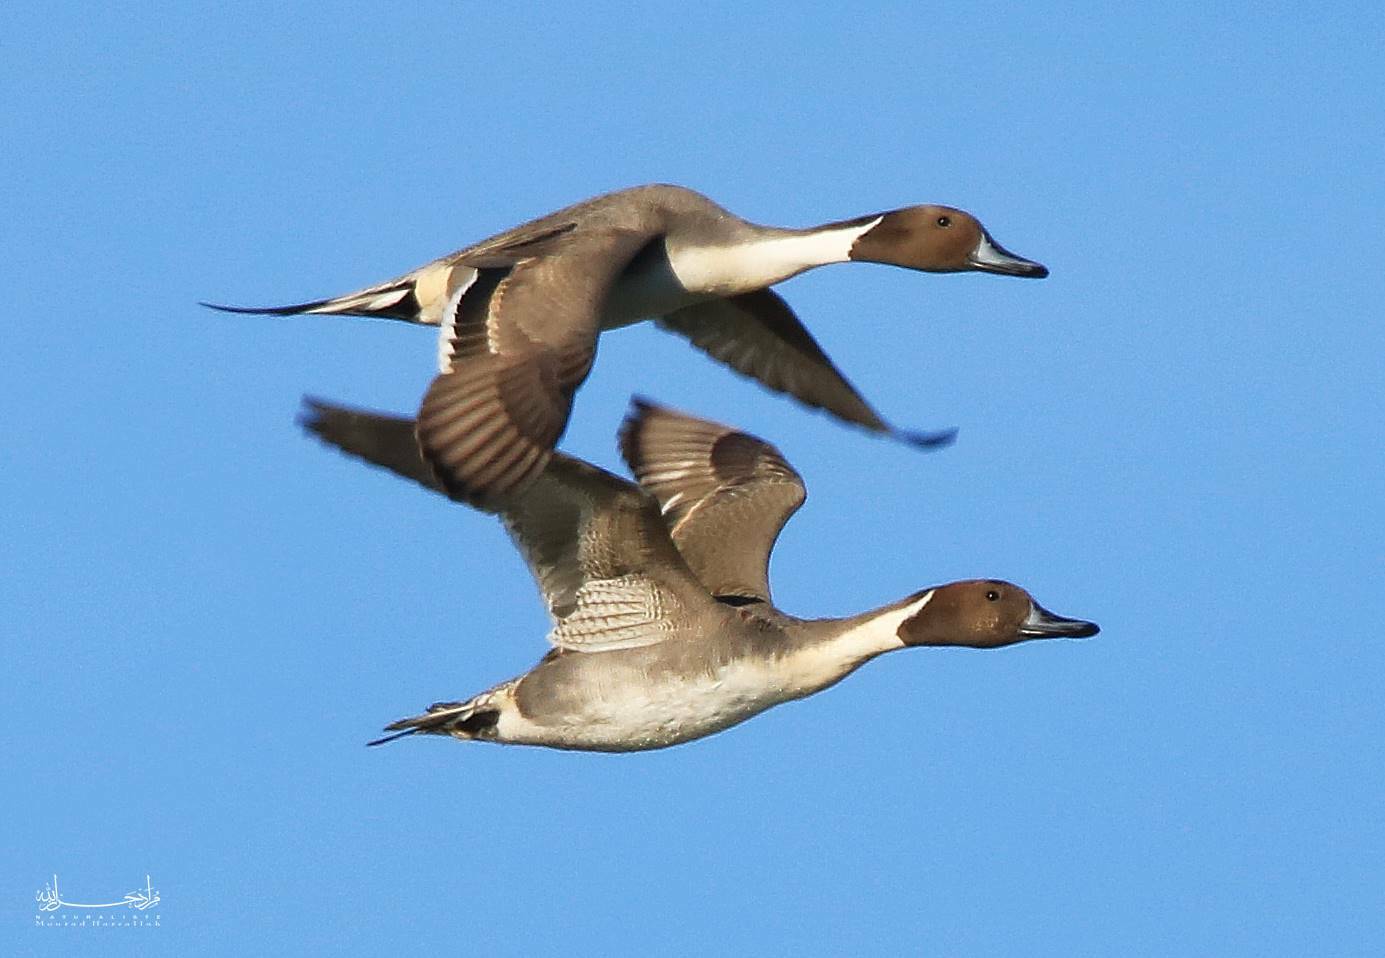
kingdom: Animalia
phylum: Chordata
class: Aves
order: Anseriformes
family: Anatidae
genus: Anas
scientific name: Anas acuta
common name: Northern pintail
